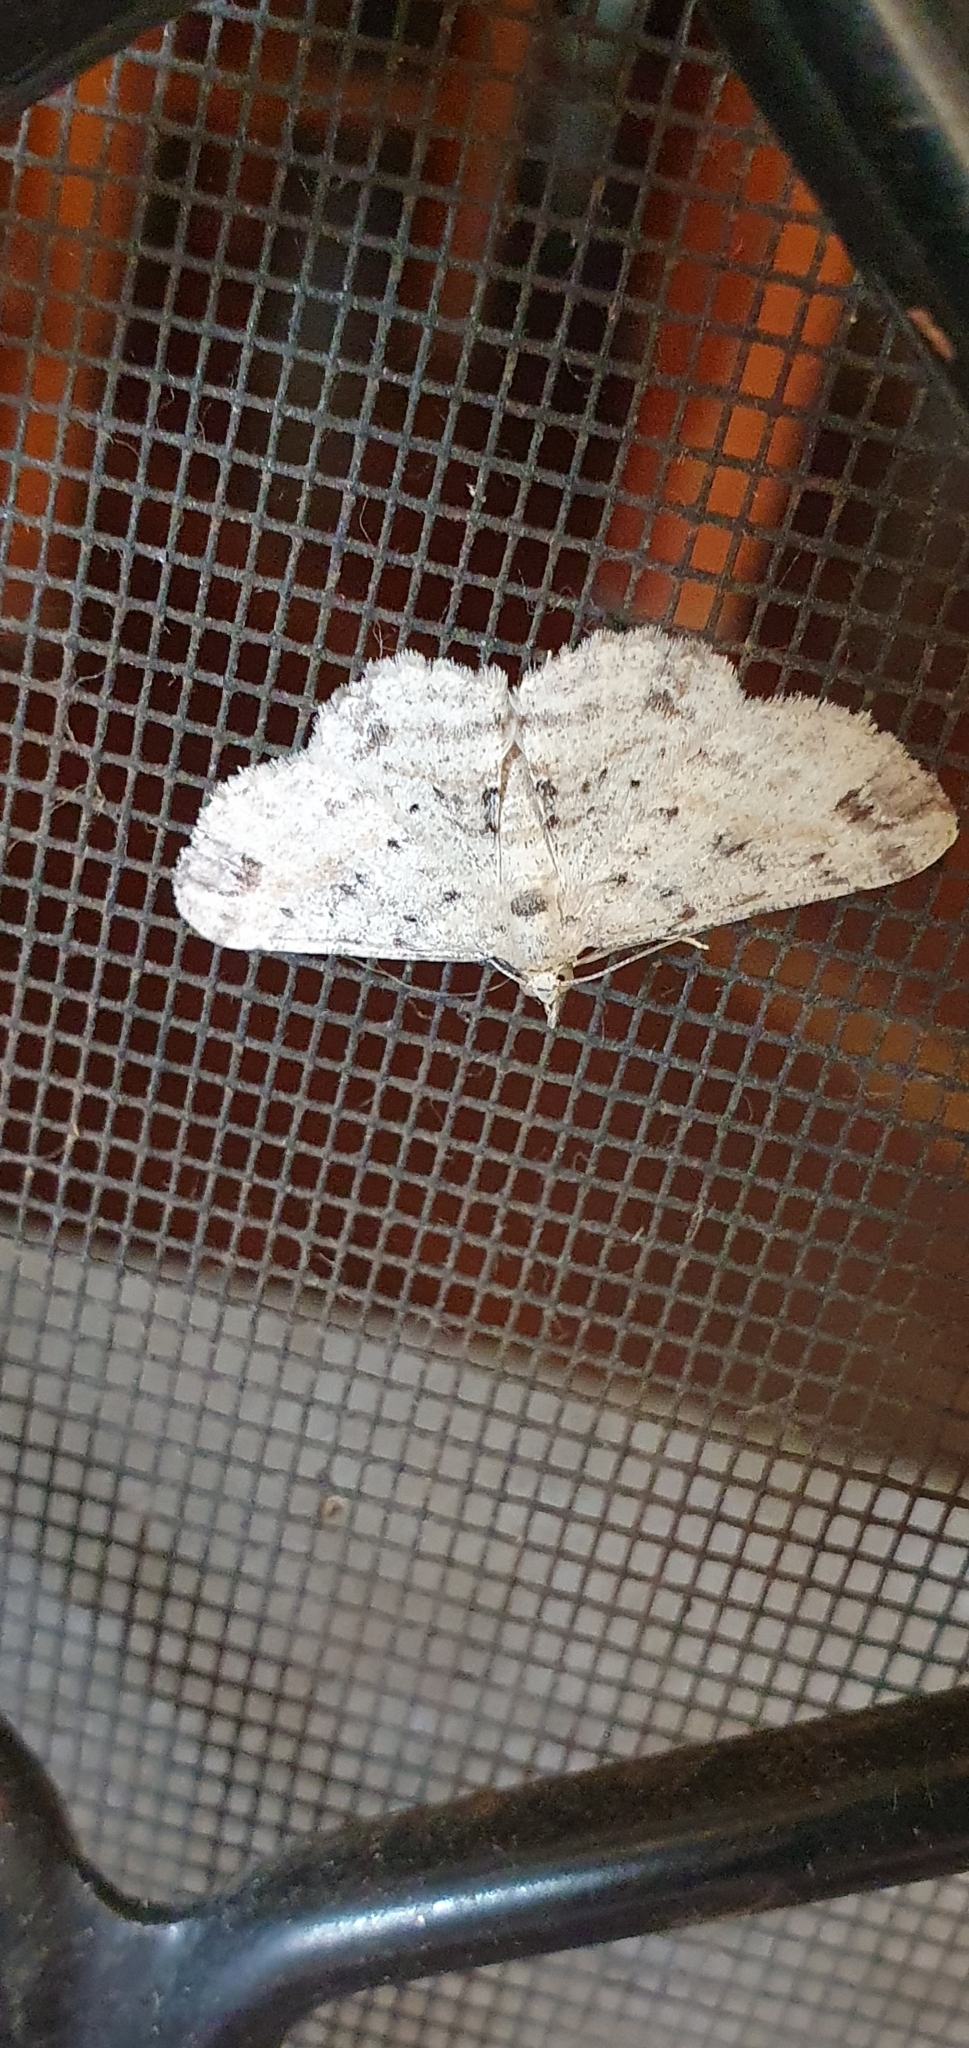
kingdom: Animalia
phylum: Arthropoda
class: Insecta
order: Lepidoptera
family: Geometridae
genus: Lobus
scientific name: Lobus lithinopa
